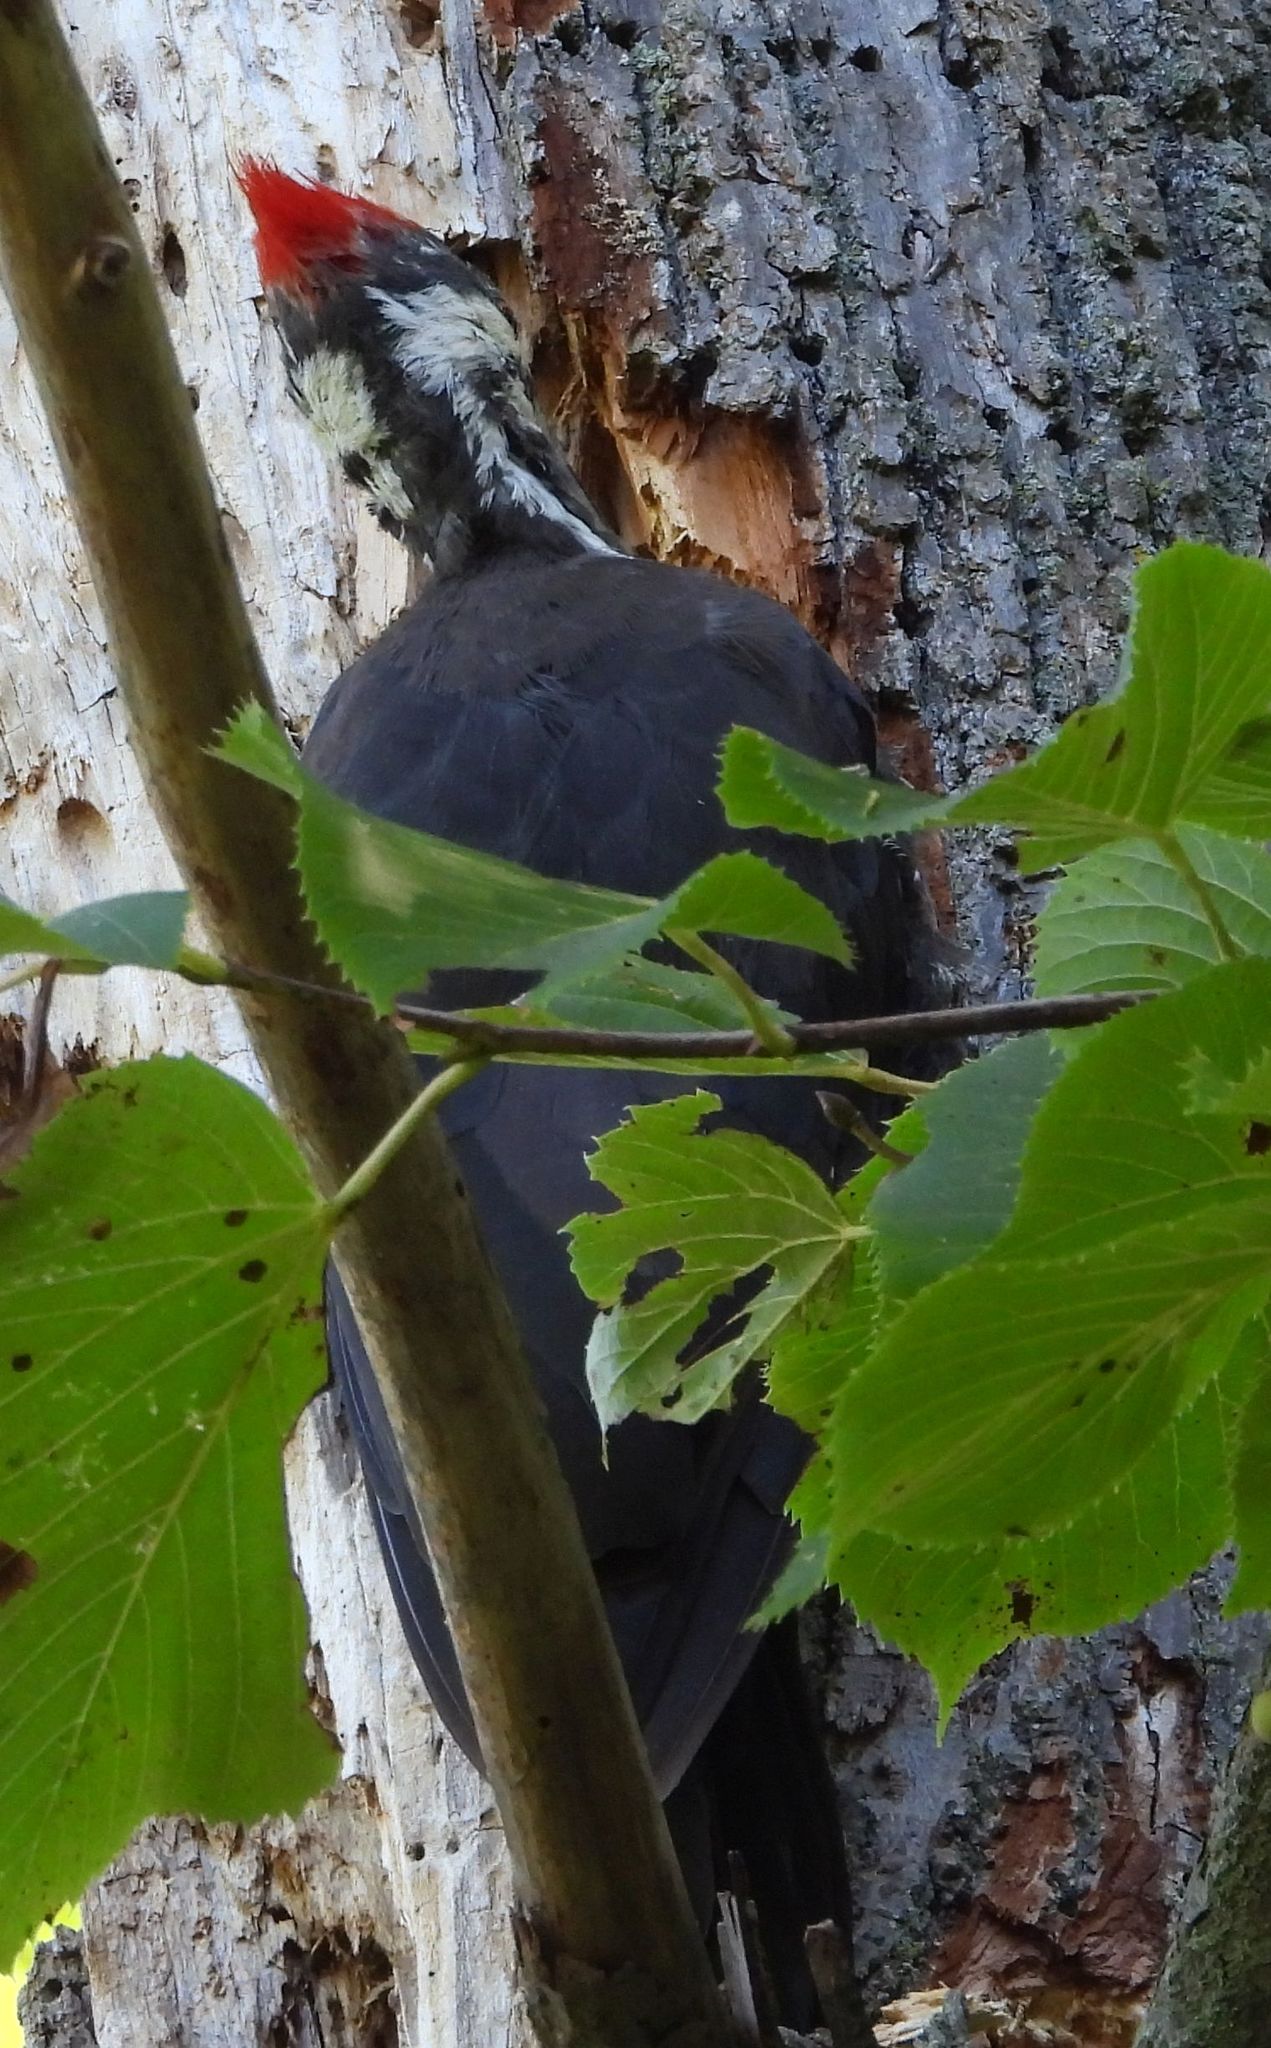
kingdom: Animalia
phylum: Chordata
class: Aves
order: Piciformes
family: Picidae
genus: Dryocopus
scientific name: Dryocopus pileatus
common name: Pileated woodpecker
